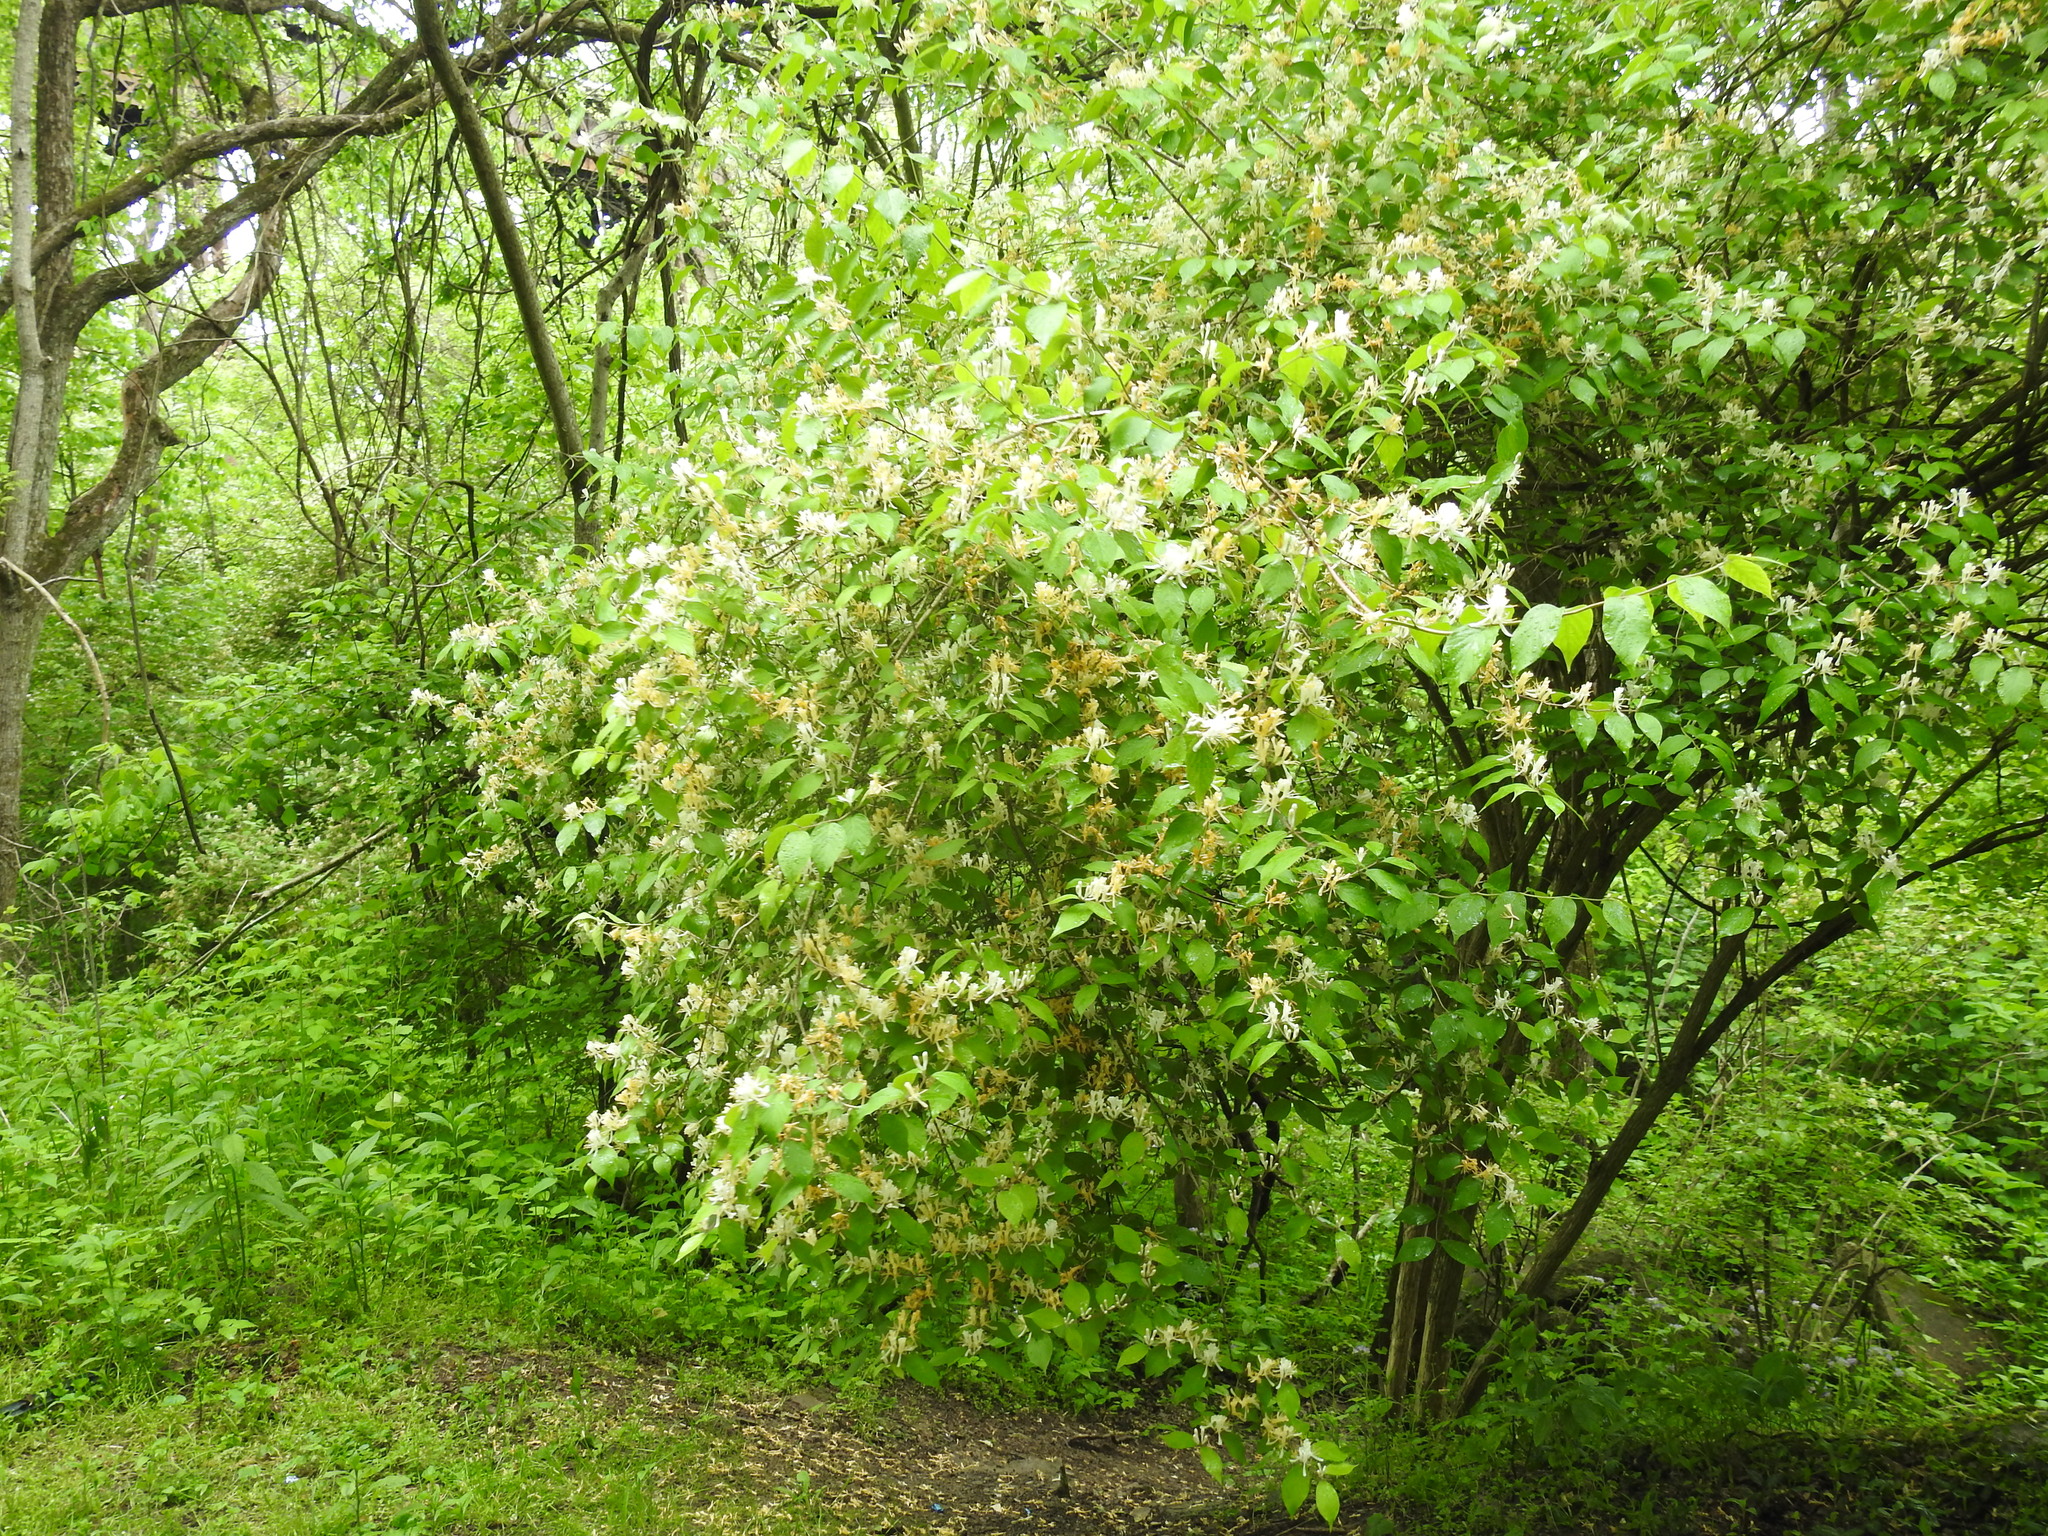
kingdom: Plantae
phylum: Tracheophyta
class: Magnoliopsida
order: Dipsacales
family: Caprifoliaceae
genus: Lonicera
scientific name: Lonicera maackii
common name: Amur honeysuckle
